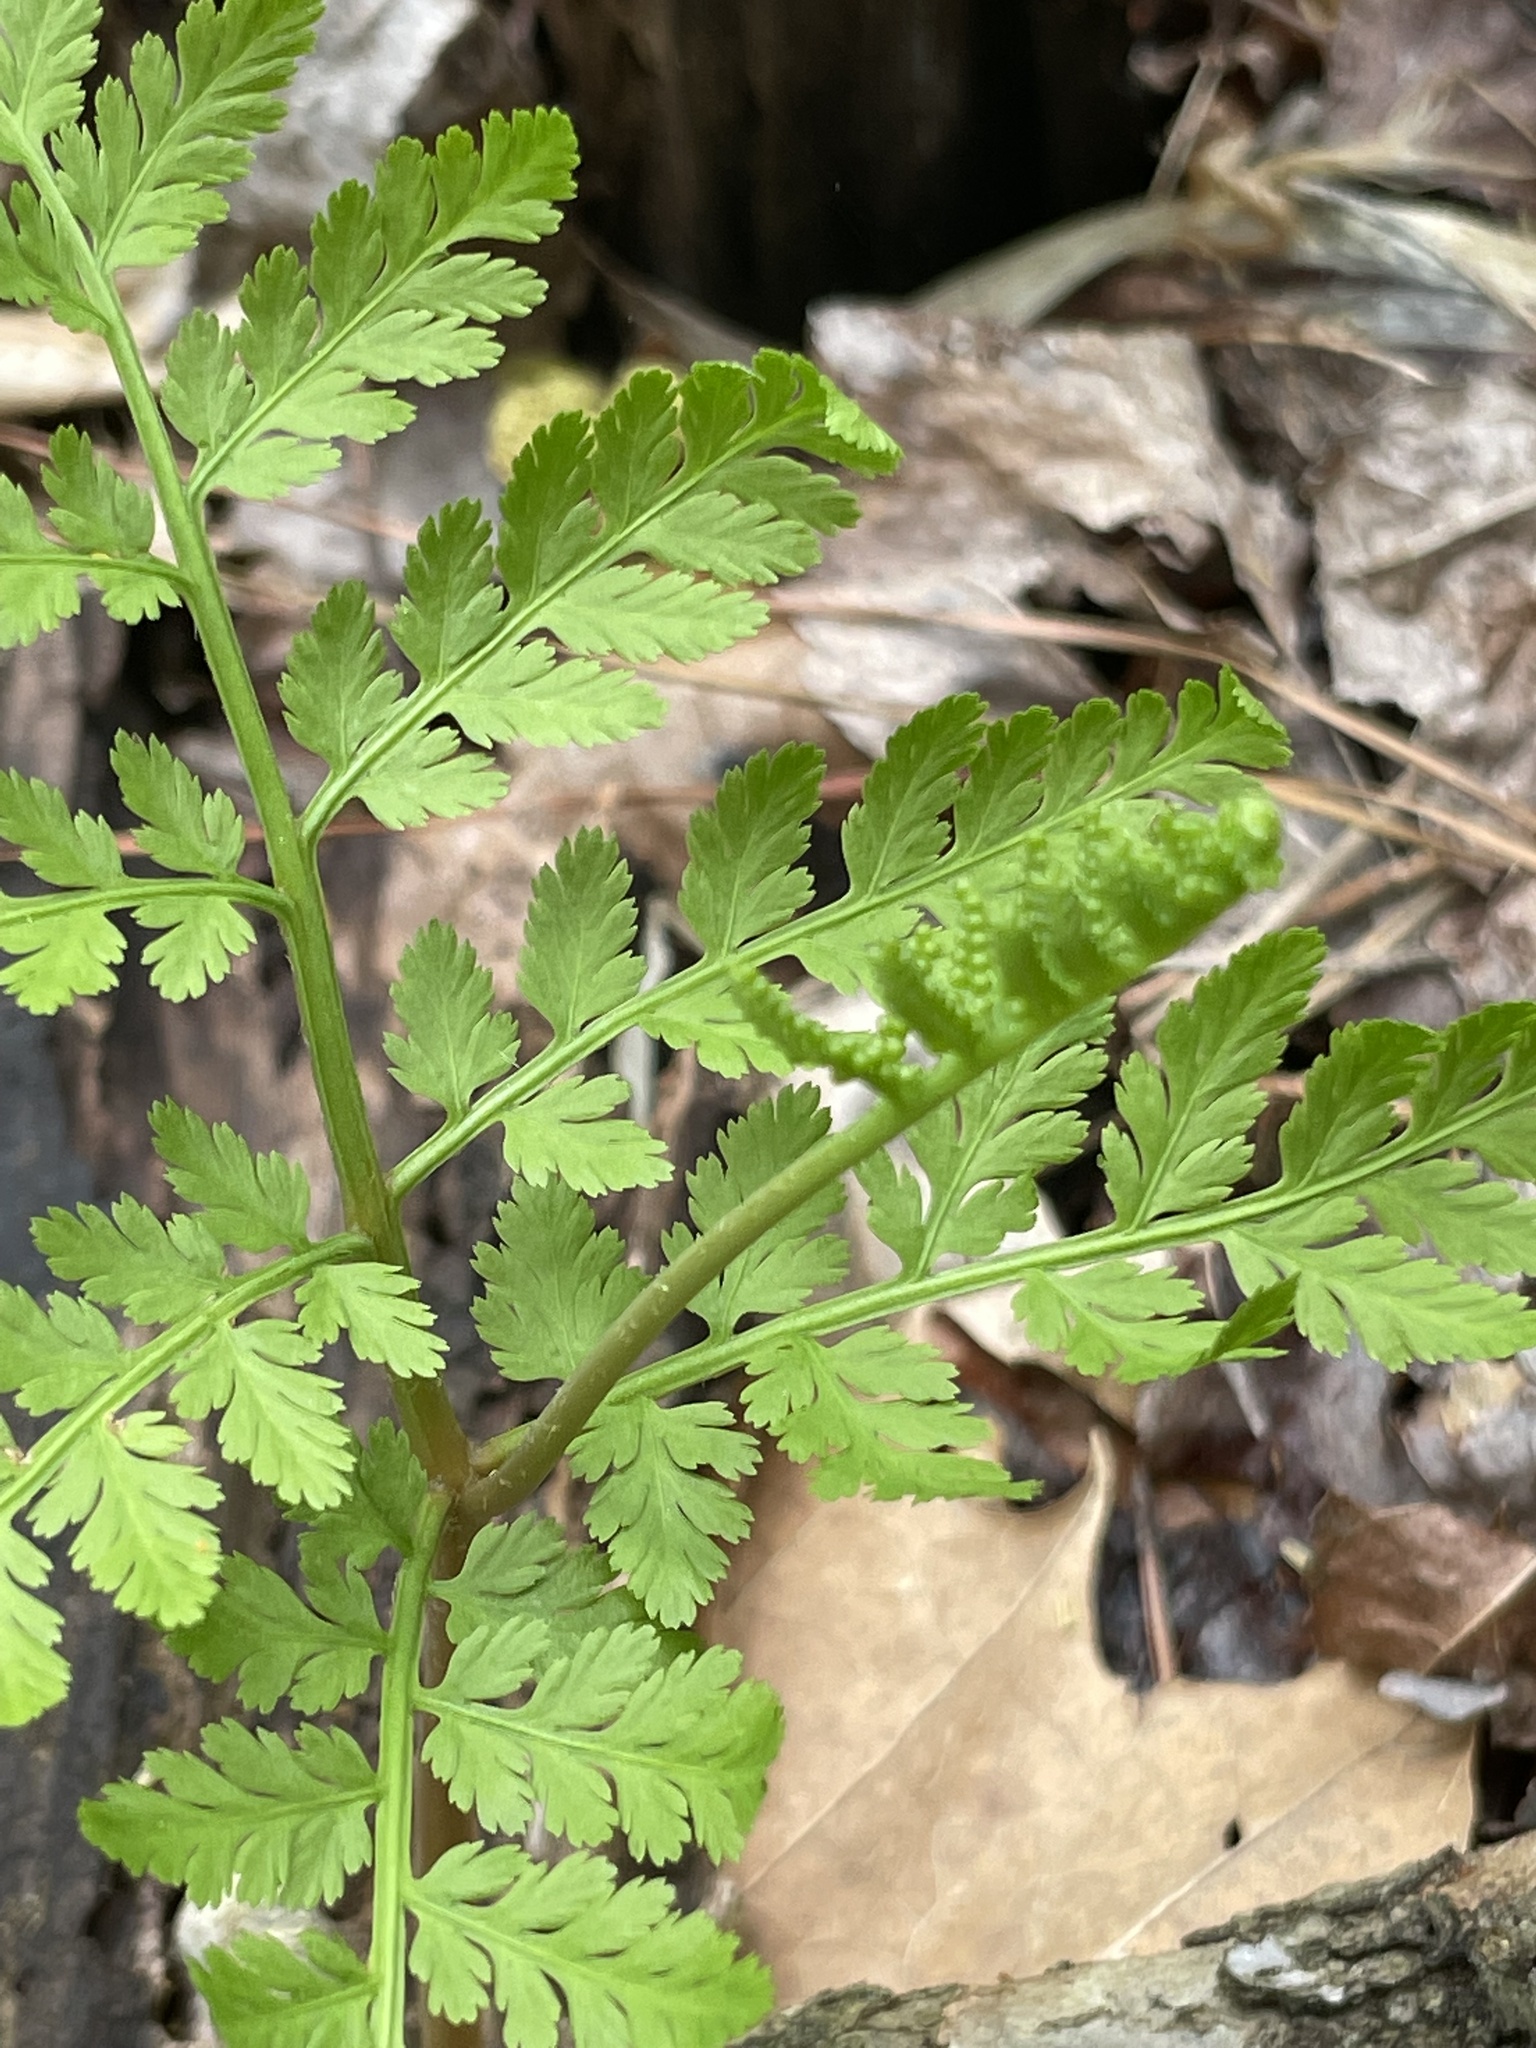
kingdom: Plantae
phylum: Tracheophyta
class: Polypodiopsida
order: Ophioglossales
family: Ophioglossaceae
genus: Botrypus
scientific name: Botrypus virginianus
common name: Common grapefern
